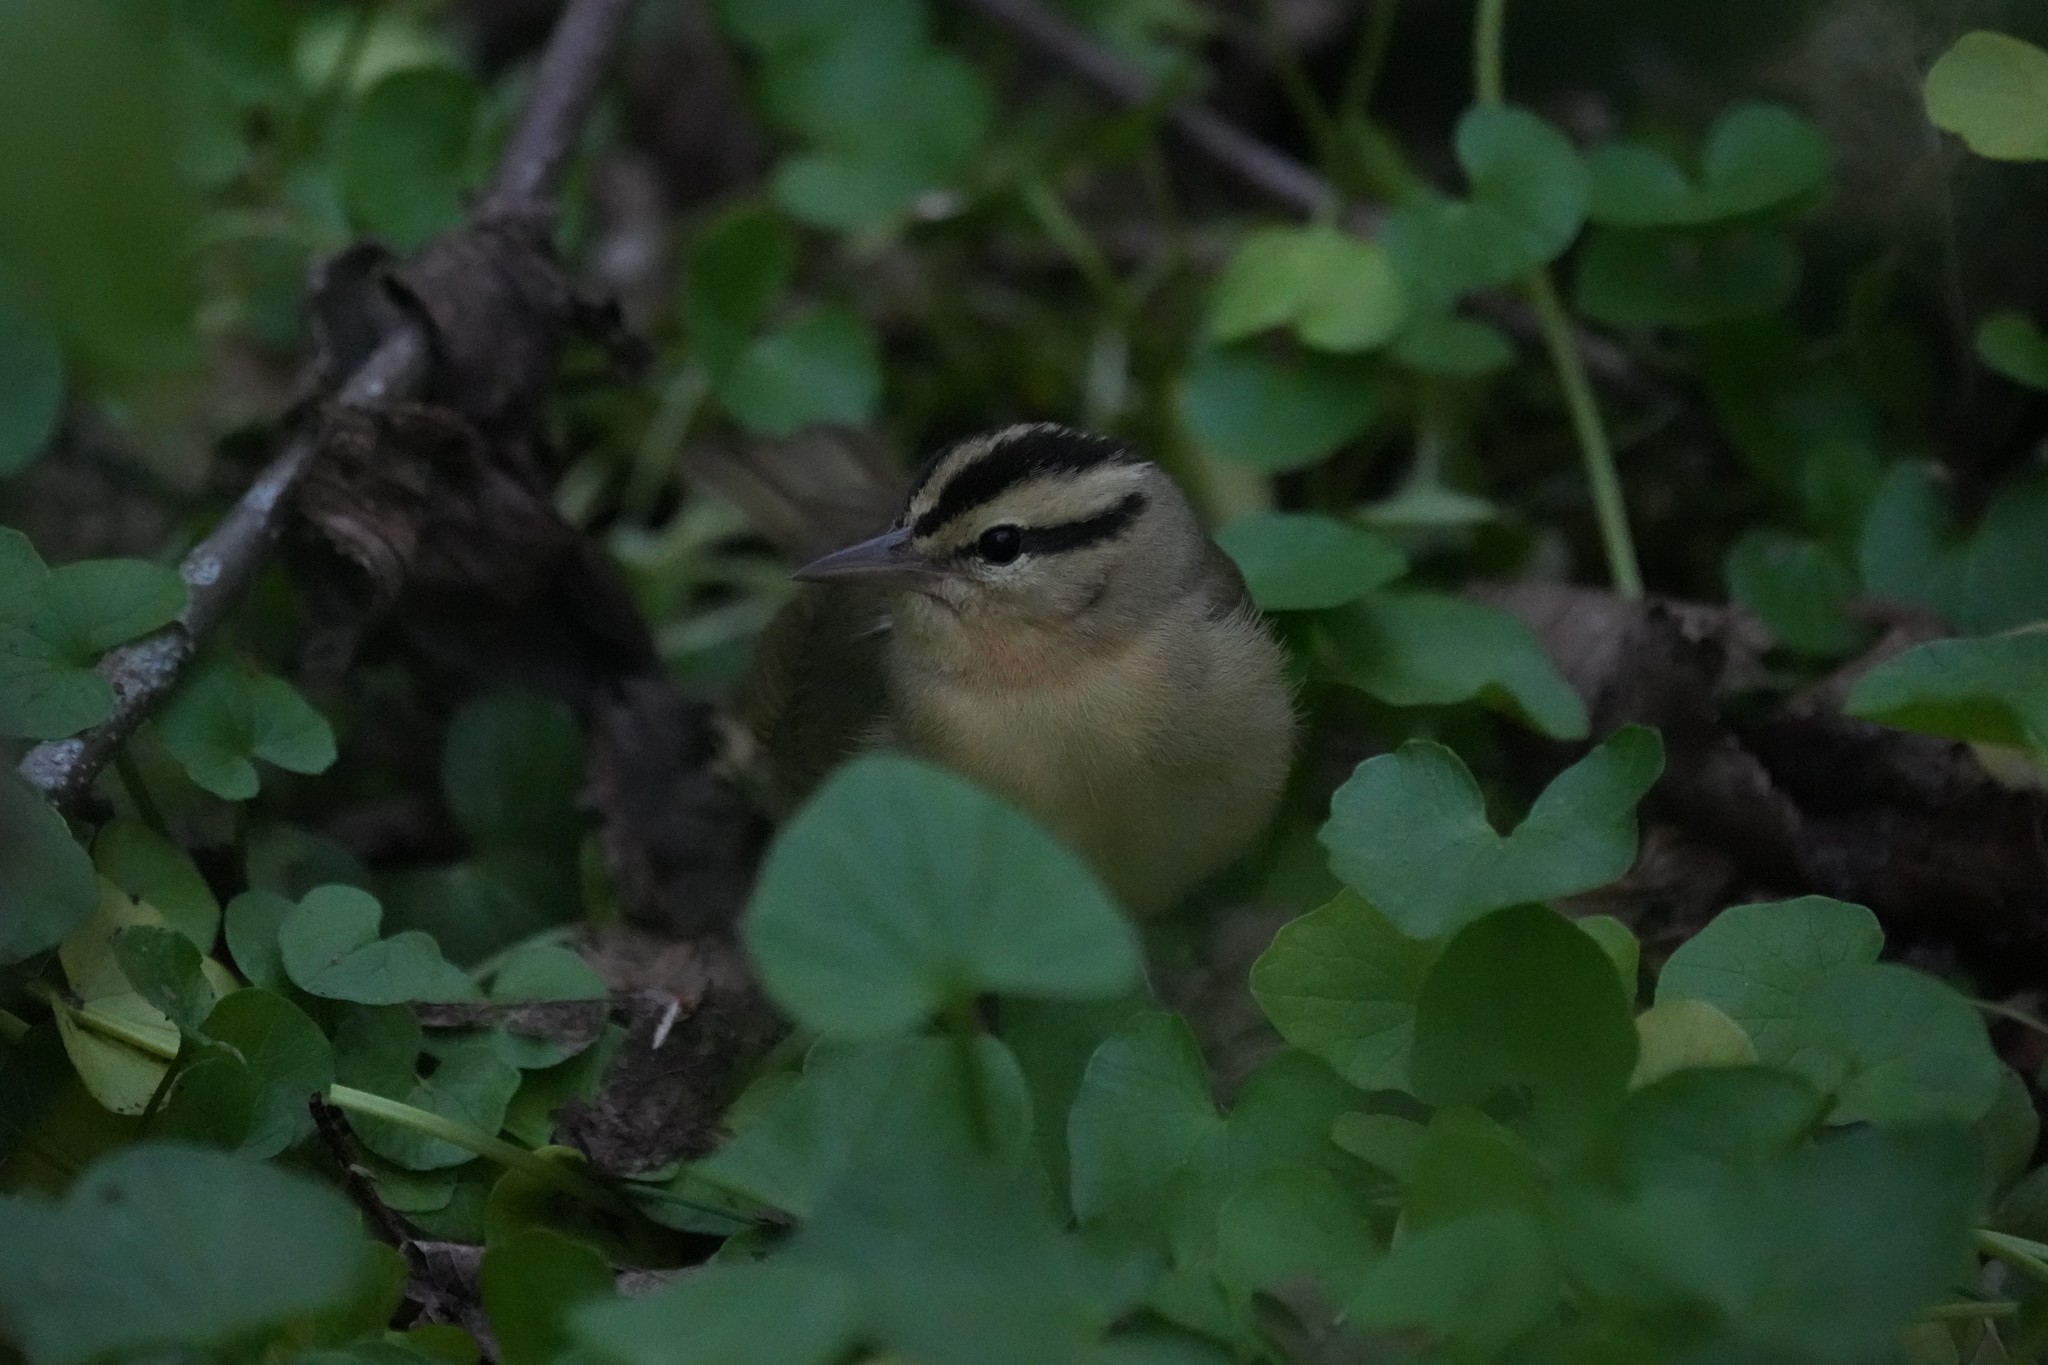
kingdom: Animalia
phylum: Chordata
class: Aves
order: Passeriformes
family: Parulidae
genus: Helmitheros
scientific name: Helmitheros vermivorum
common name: Worm-eating warbler
